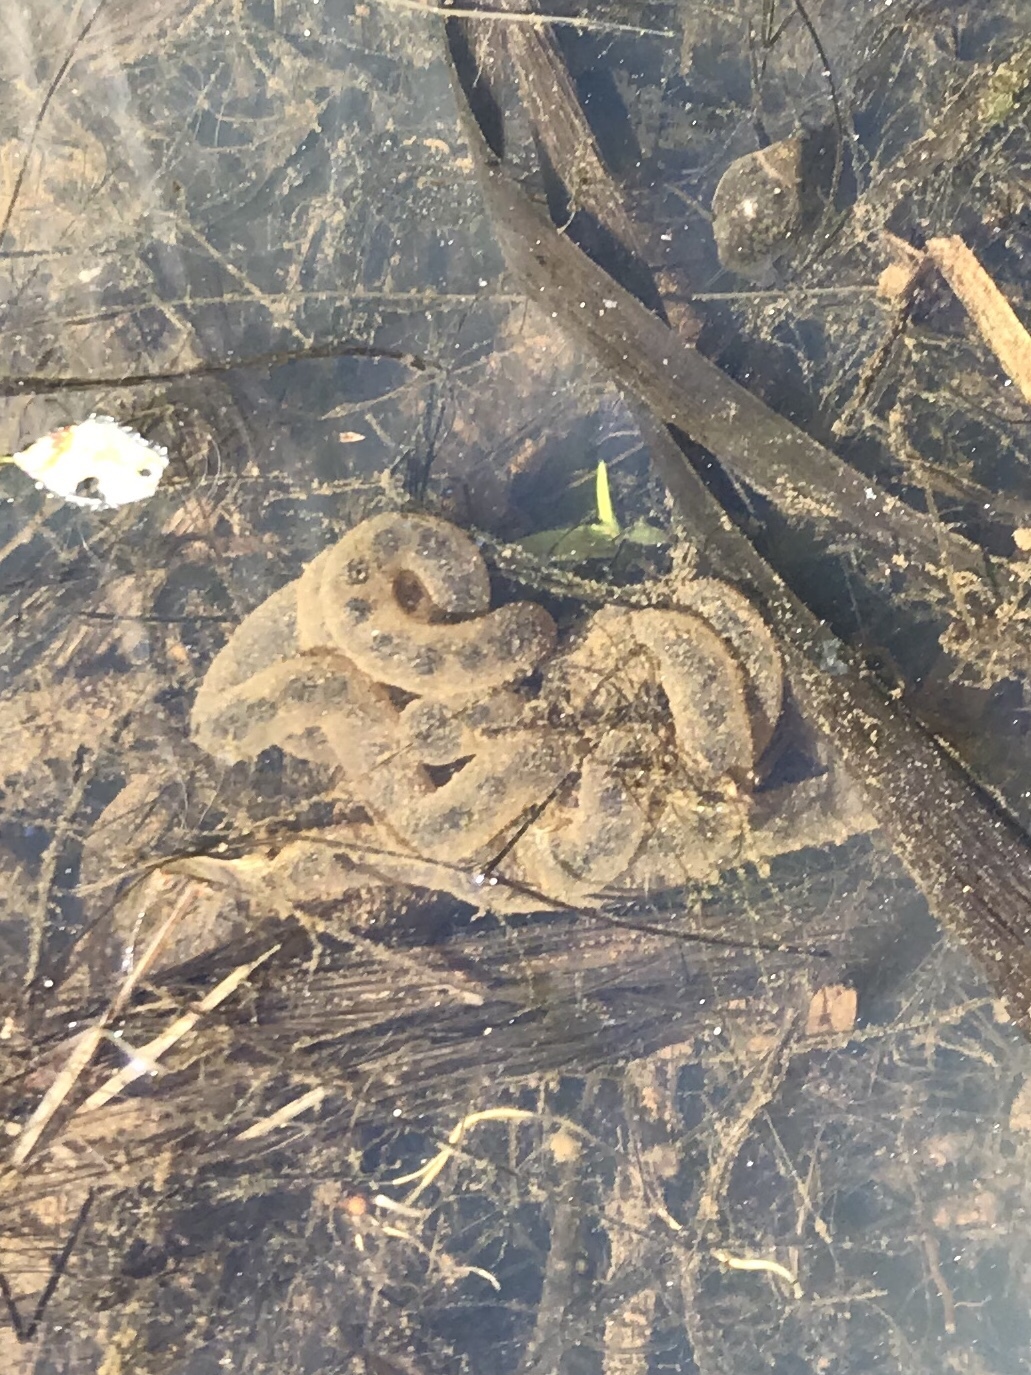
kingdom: Animalia
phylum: Chordata
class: Amphibia
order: Anura
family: Bufonidae
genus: Anaxyrus
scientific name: Anaxyrus americanus
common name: American toad
